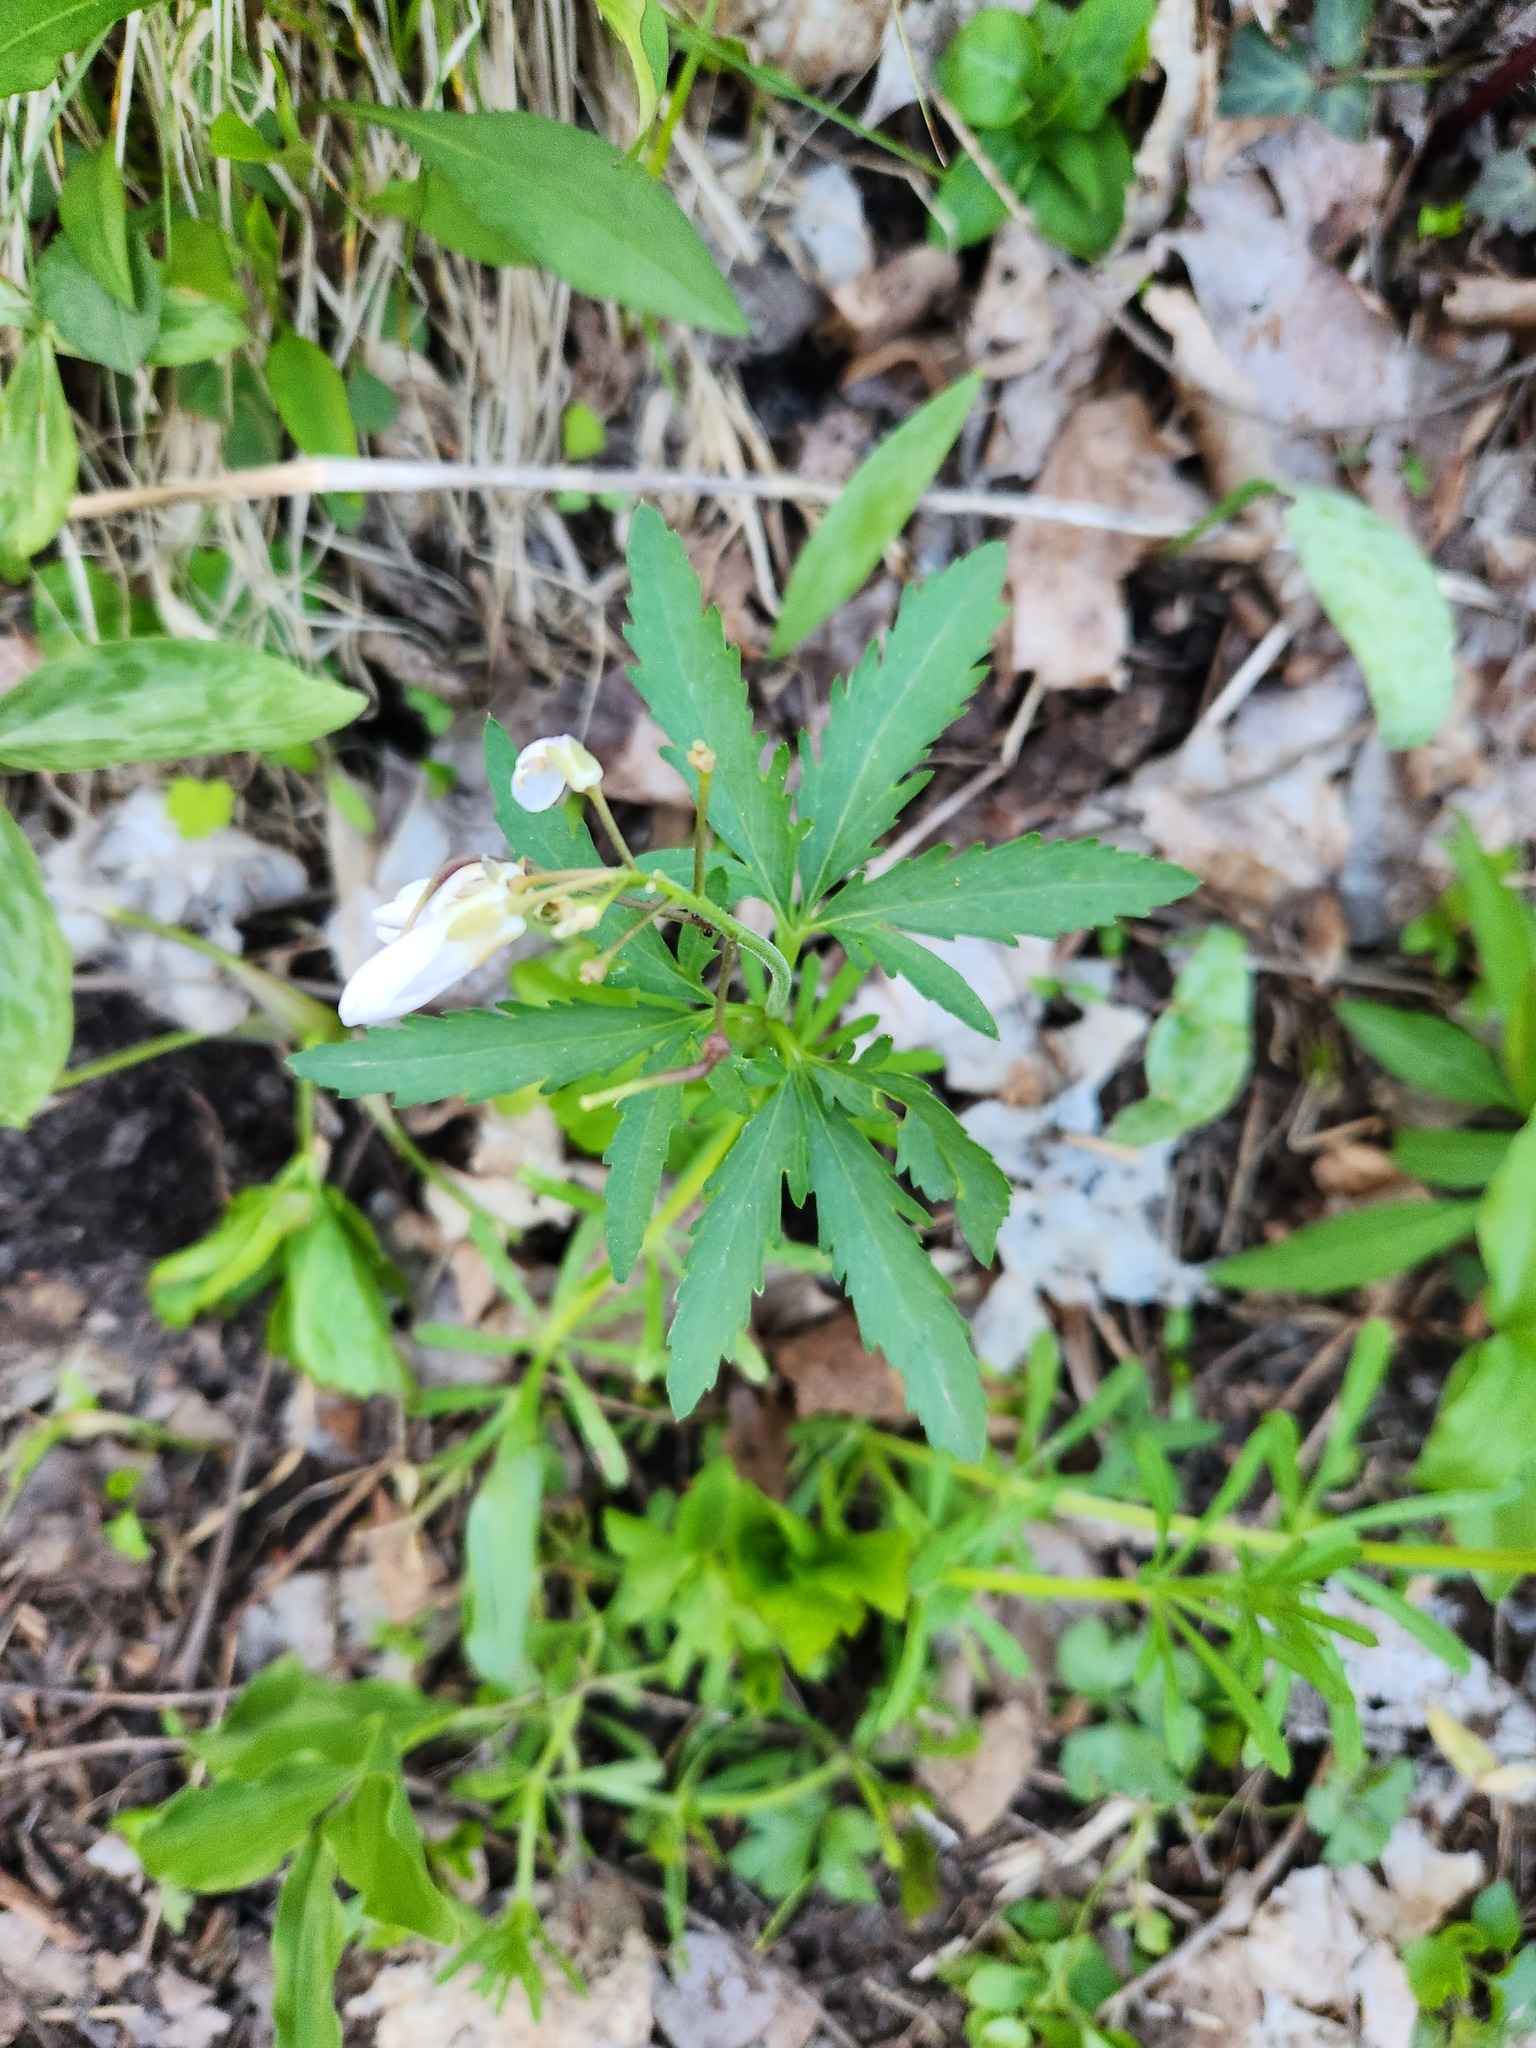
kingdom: Plantae
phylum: Tracheophyta
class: Magnoliopsida
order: Brassicales
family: Brassicaceae
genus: Cardamine
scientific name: Cardamine concatenata
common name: Cut-leaf toothcup
